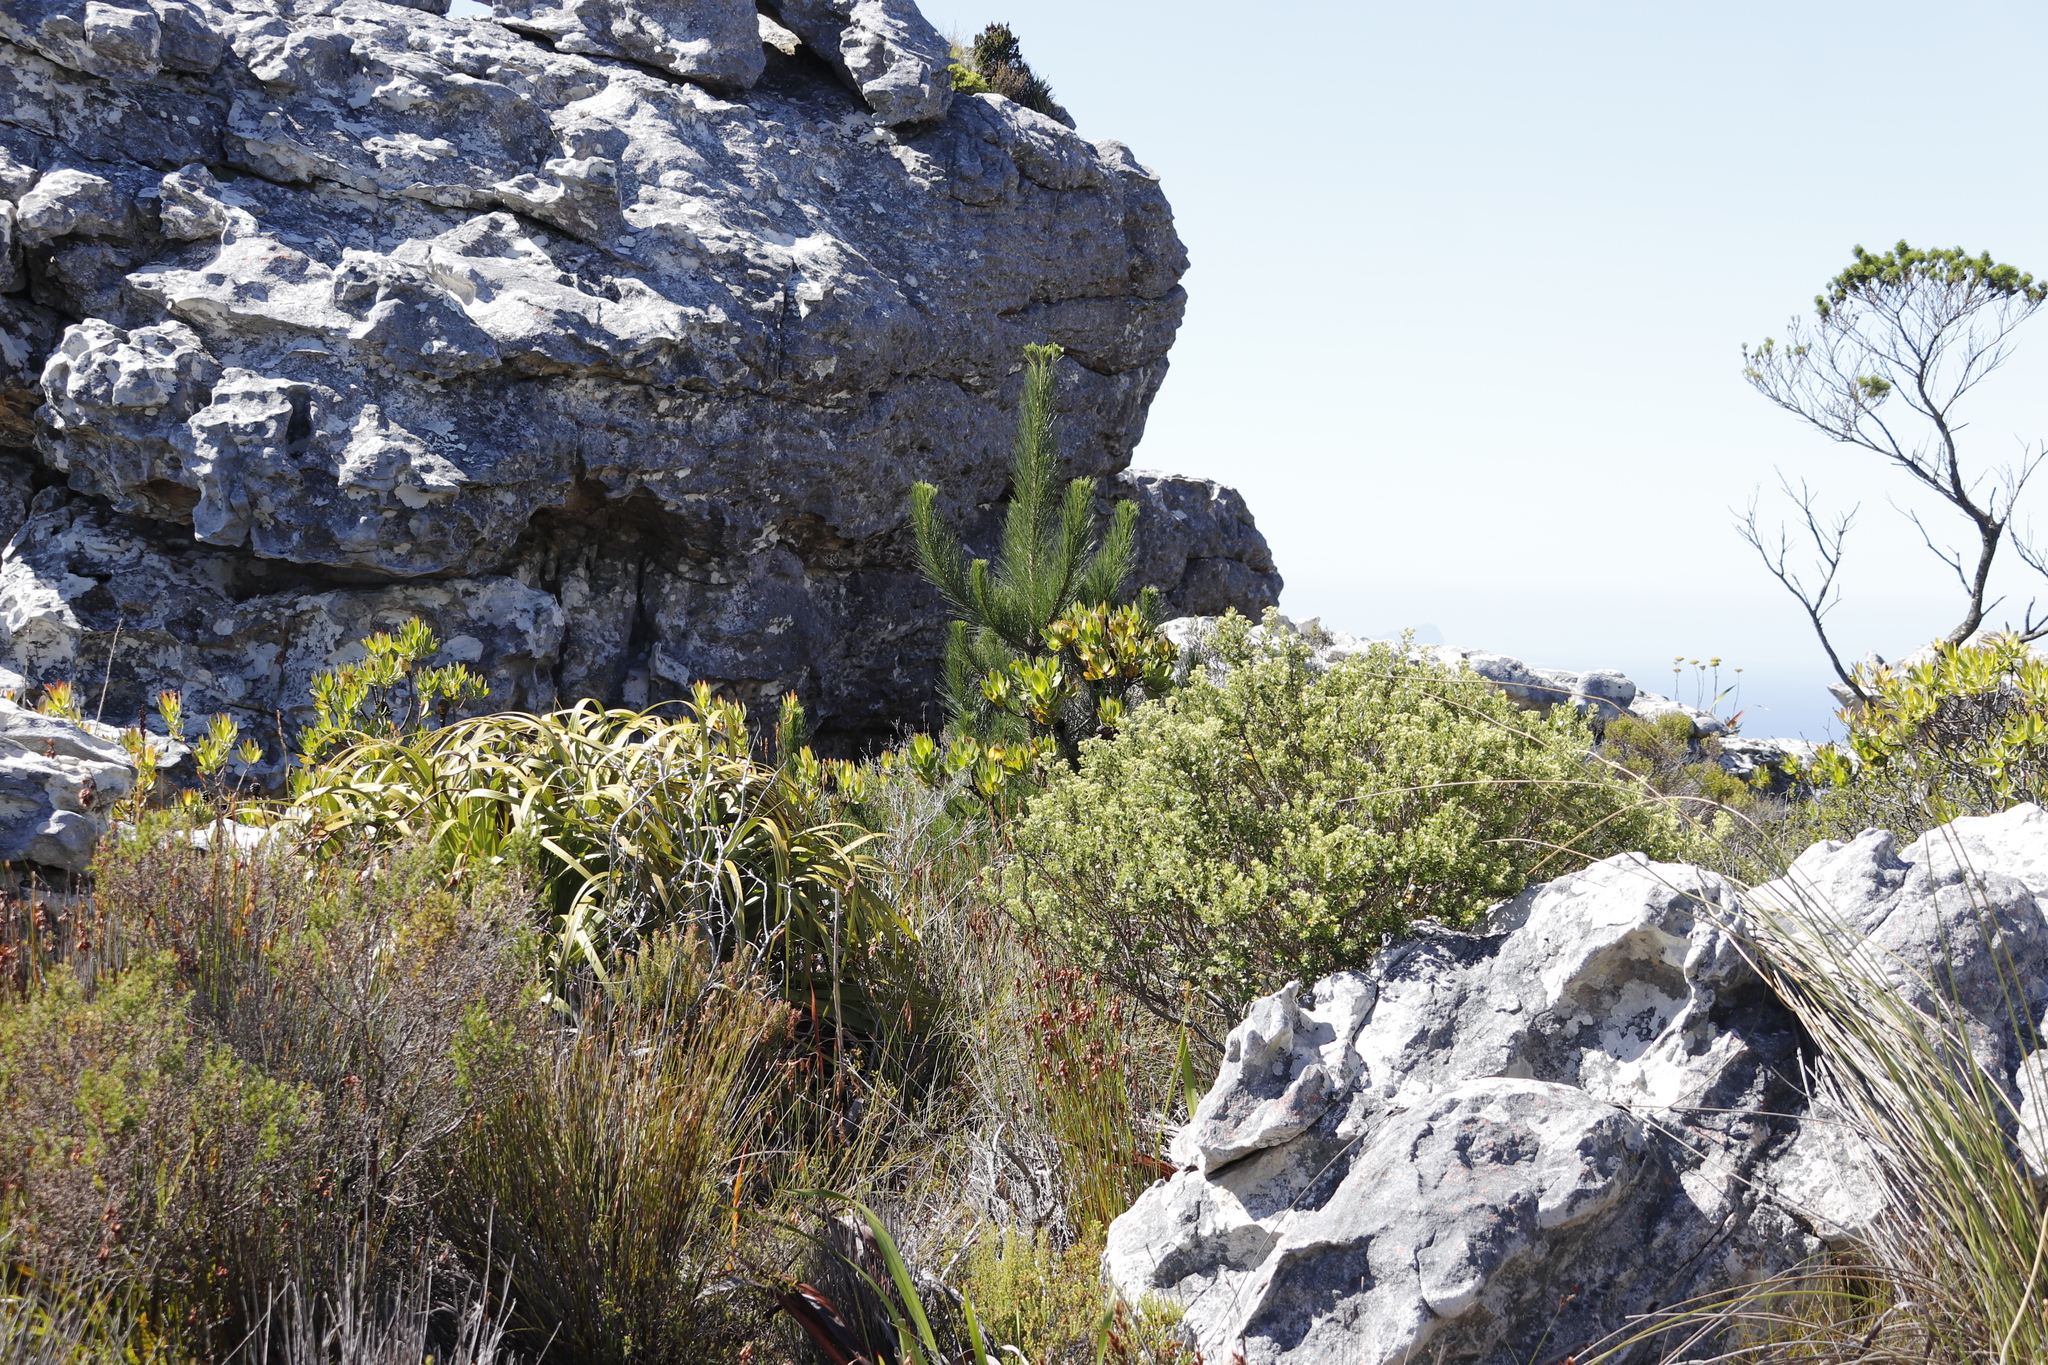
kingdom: Plantae
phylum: Tracheophyta
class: Pinopsida
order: Pinales
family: Pinaceae
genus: Pinus
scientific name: Pinus radiata
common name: Monterey pine
